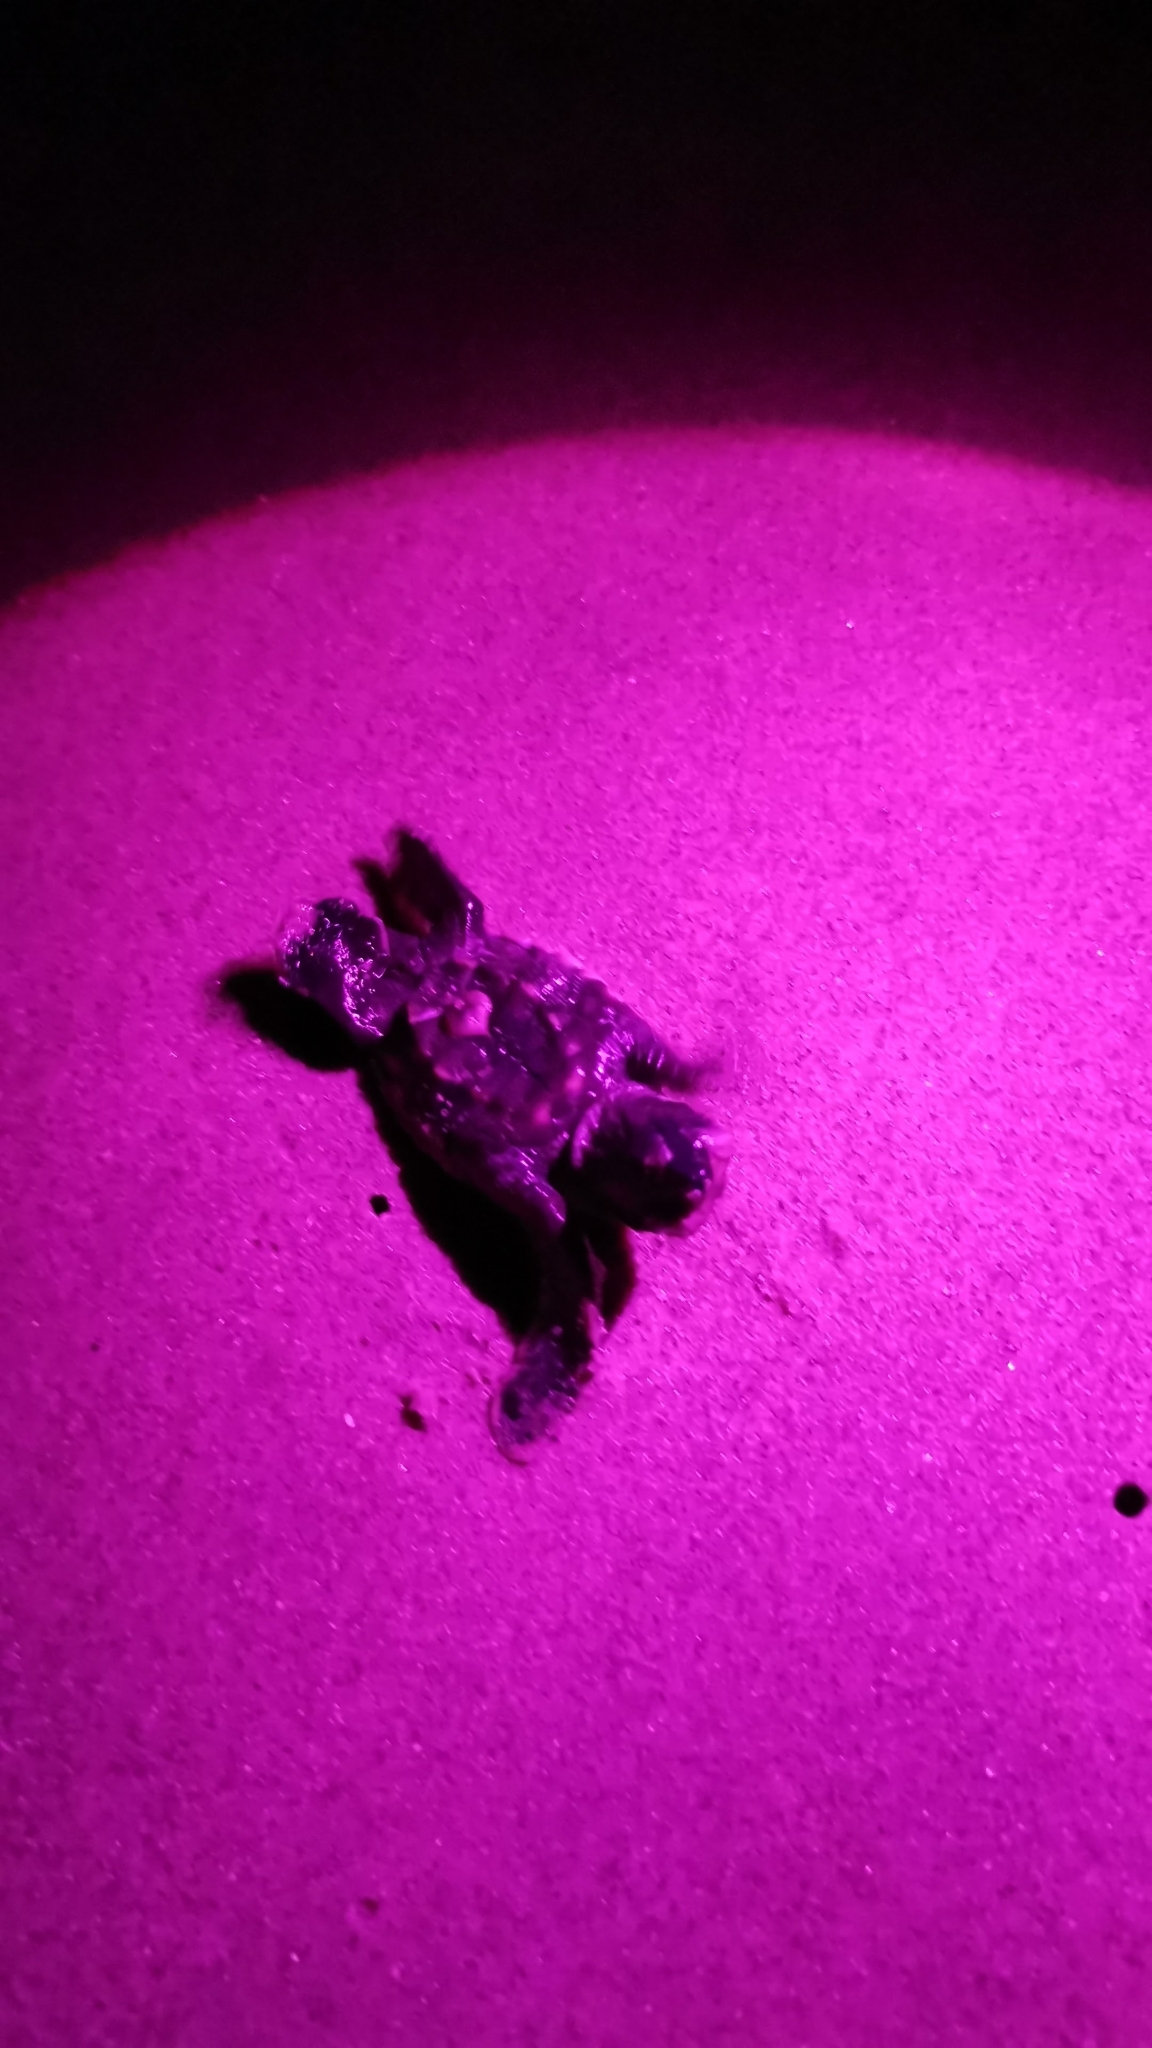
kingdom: Animalia
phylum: Chordata
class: Testudines
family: Cheloniidae
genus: Eretmochelys
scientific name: Eretmochelys imbricata
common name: Hawksbill turtle
